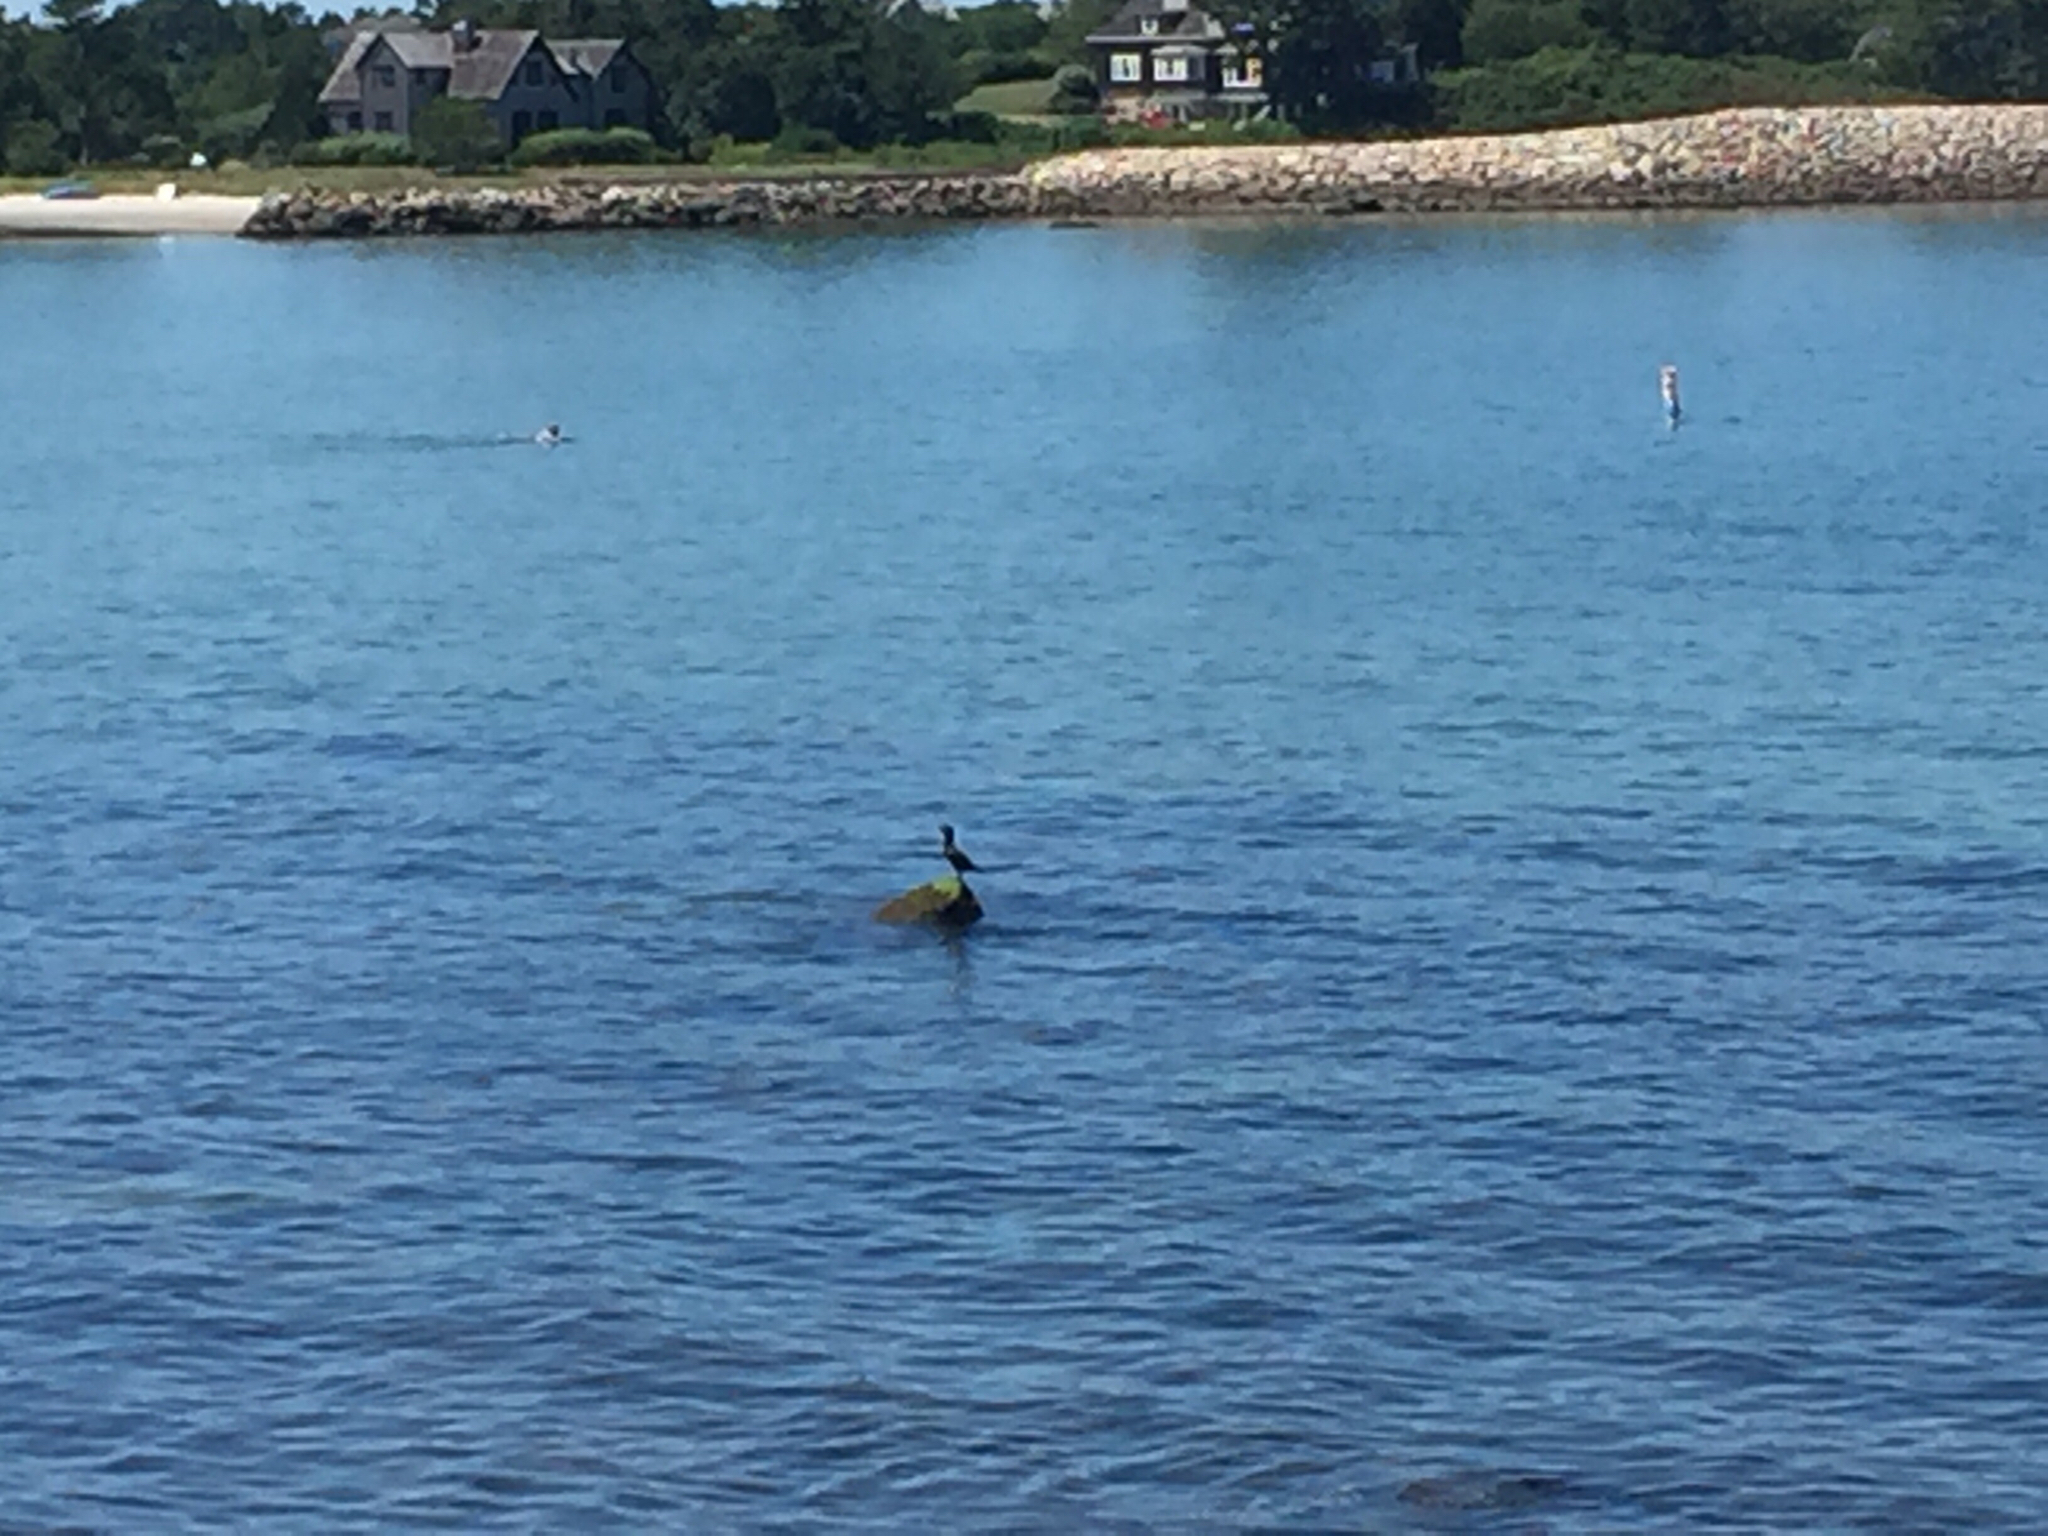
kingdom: Animalia
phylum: Chordata
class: Aves
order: Suliformes
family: Phalacrocoracidae
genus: Phalacrocorax
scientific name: Phalacrocorax auritus
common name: Double-crested cormorant
